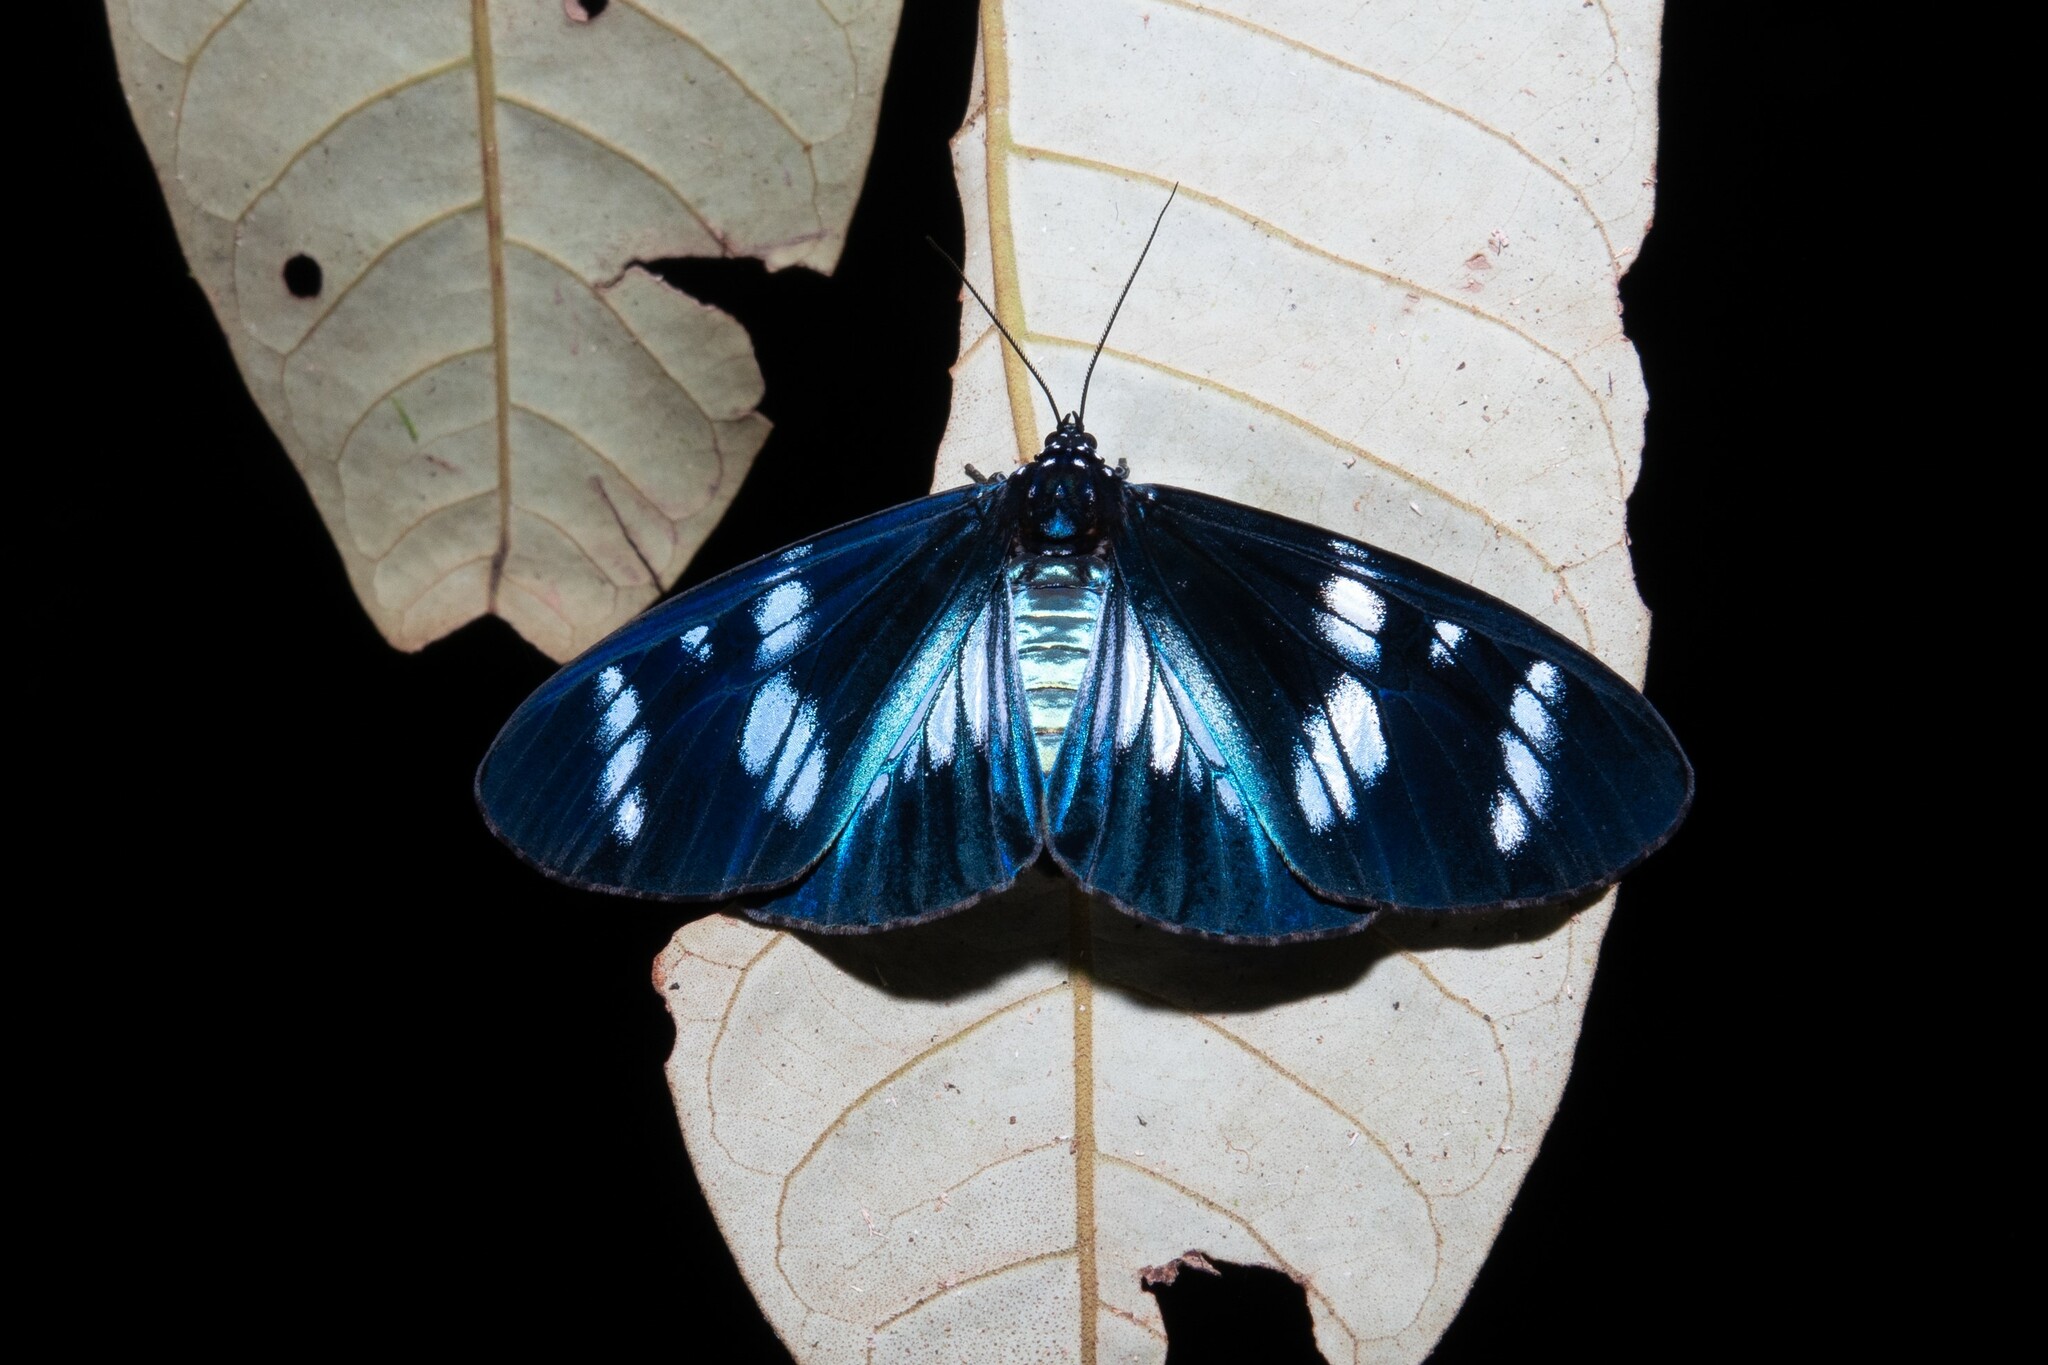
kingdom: Animalia
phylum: Arthropoda
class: Insecta
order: Lepidoptera
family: Erebidae
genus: Hypocrita
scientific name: Hypocrita plagifera
